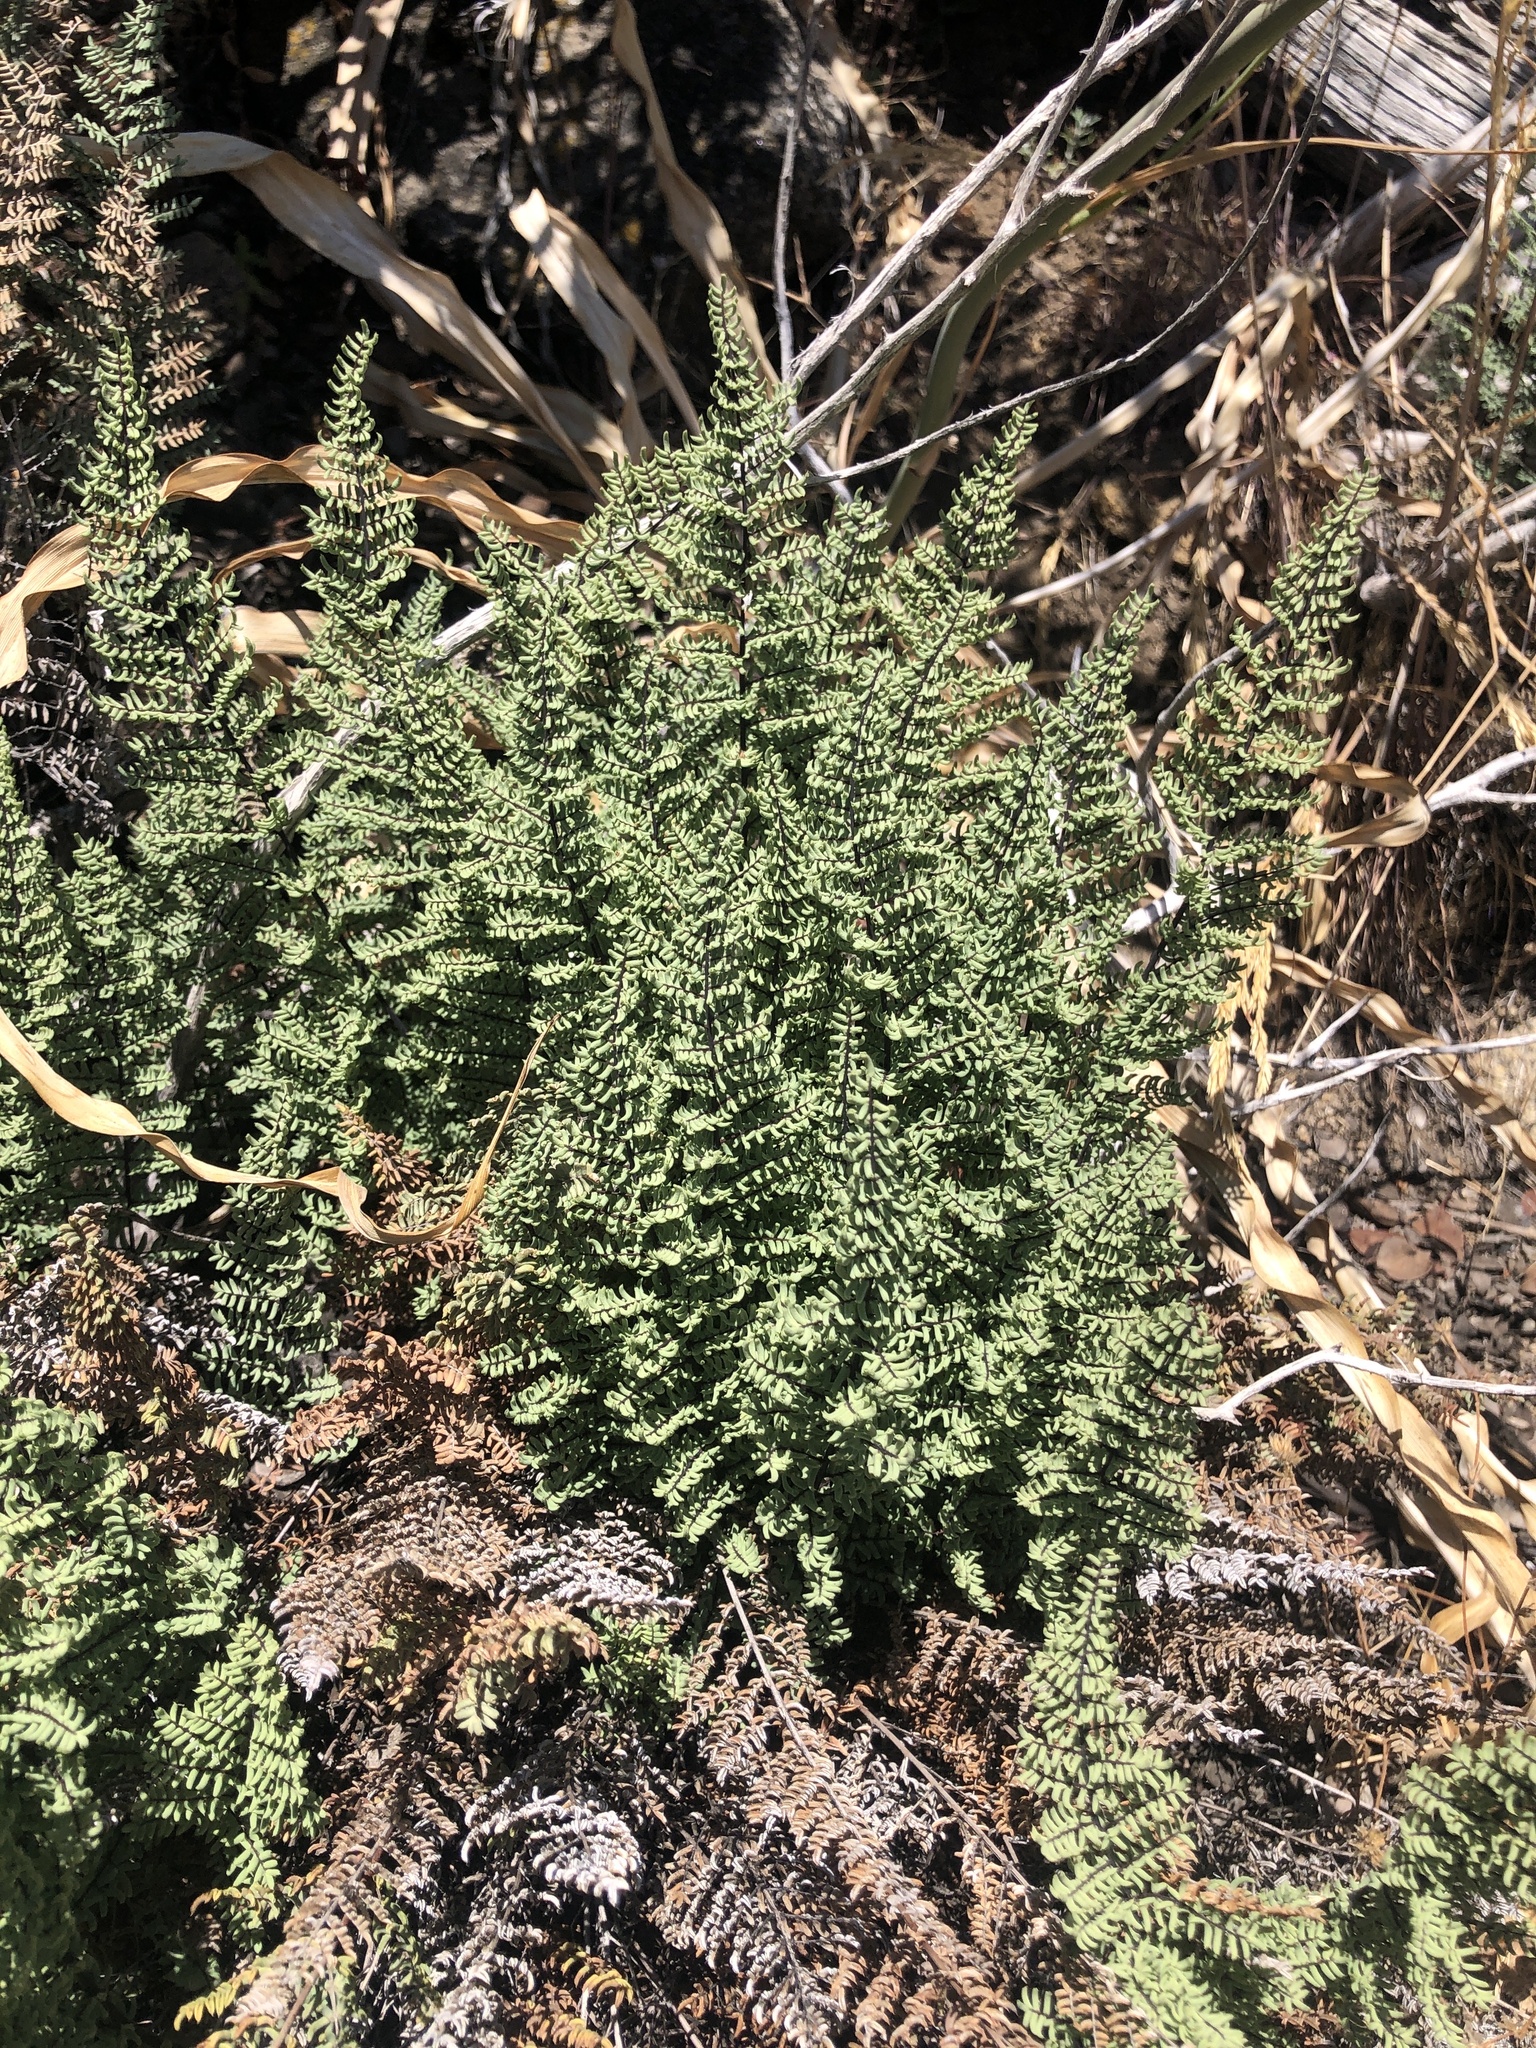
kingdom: Plantae
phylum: Tracheophyta
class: Polypodiopsida
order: Polypodiales
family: Pteridaceae
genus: Pellaea
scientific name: Pellaea mucronata
